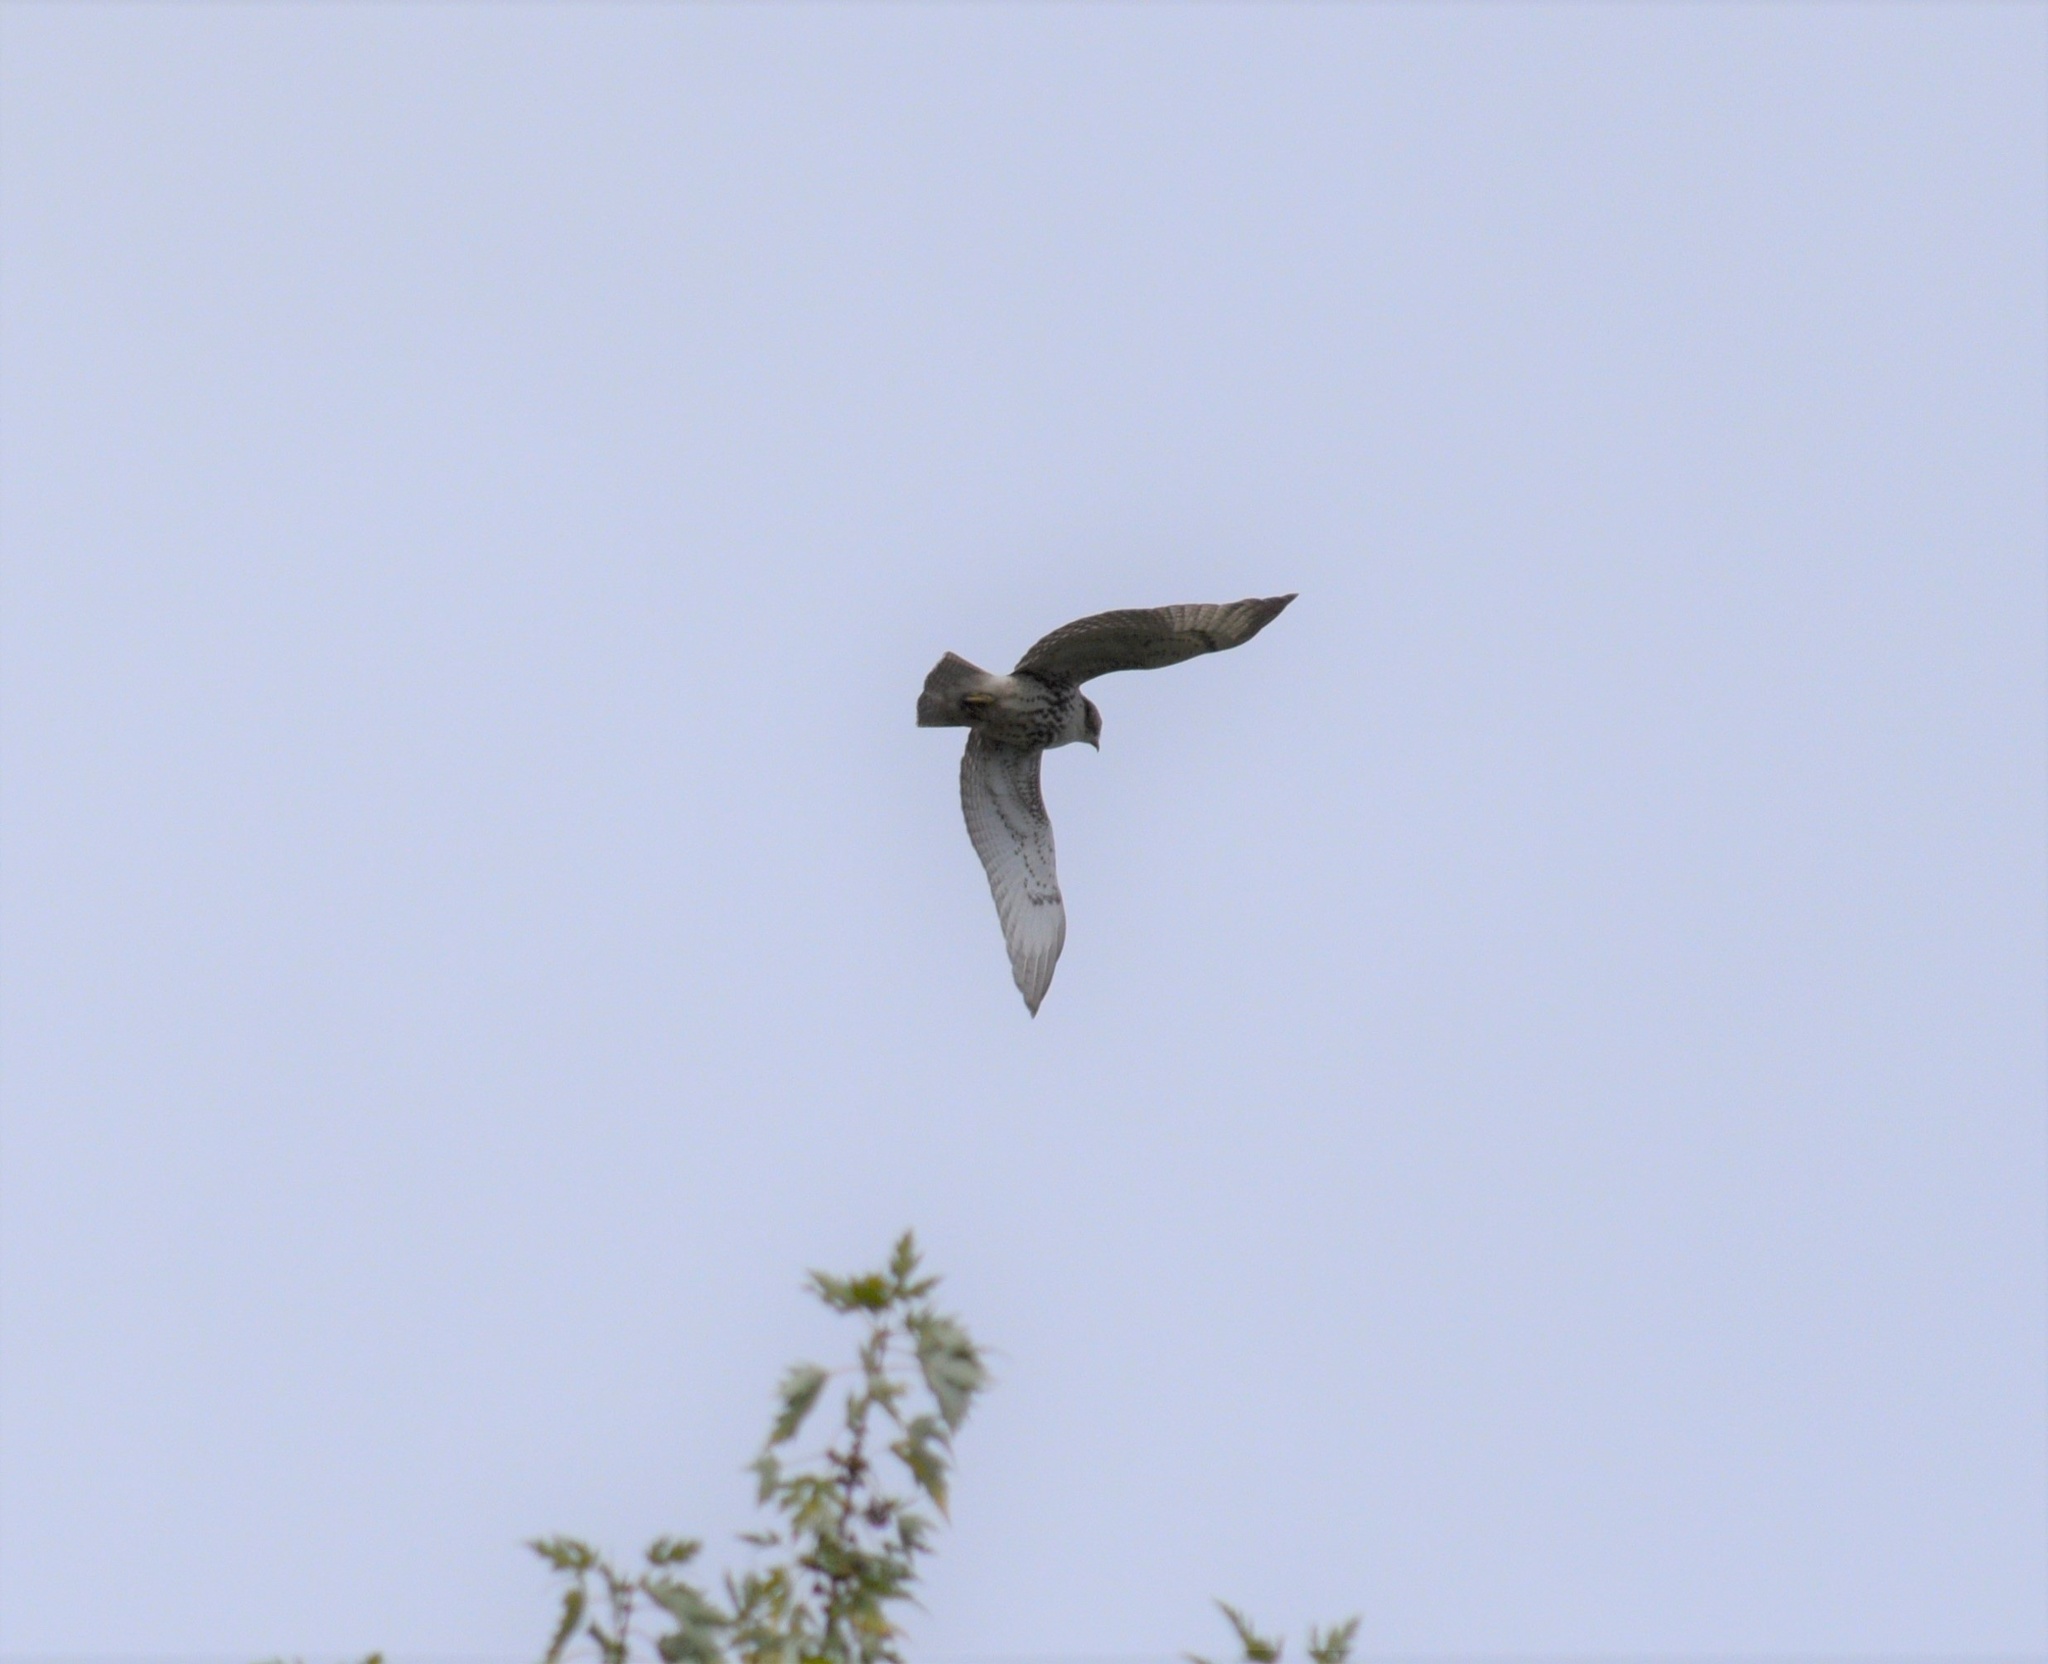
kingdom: Animalia
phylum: Chordata
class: Aves
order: Accipitriformes
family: Accipitridae
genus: Buteo
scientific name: Buteo jamaicensis
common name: Red-tailed hawk
